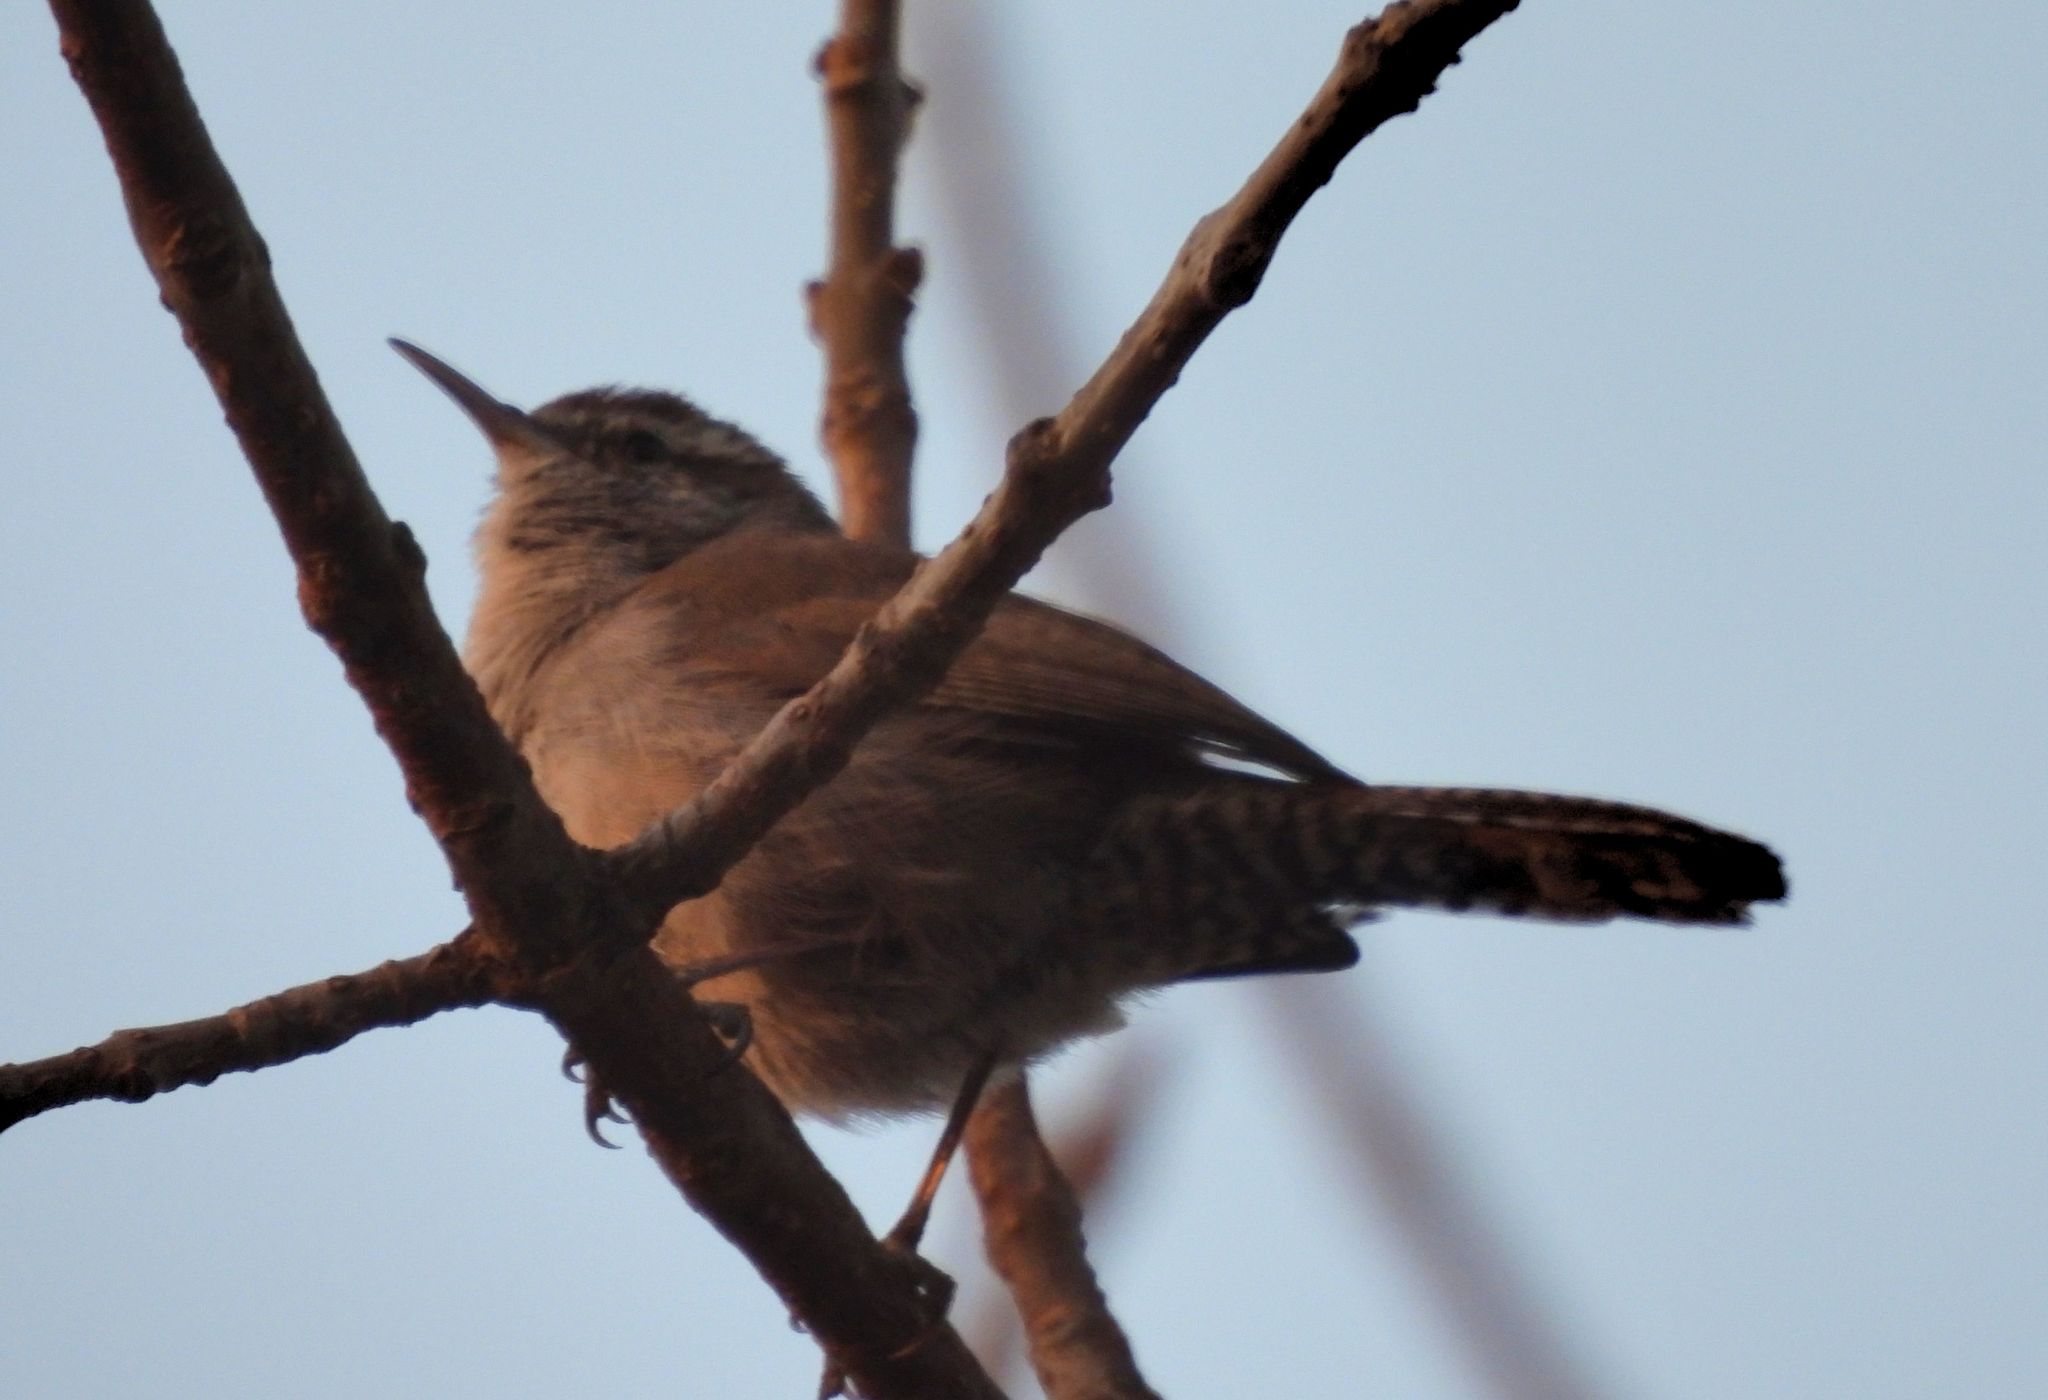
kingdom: Animalia
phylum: Chordata
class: Aves
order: Passeriformes
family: Troglodytidae
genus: Thryomanes
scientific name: Thryomanes bewickii
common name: Bewick's wren
